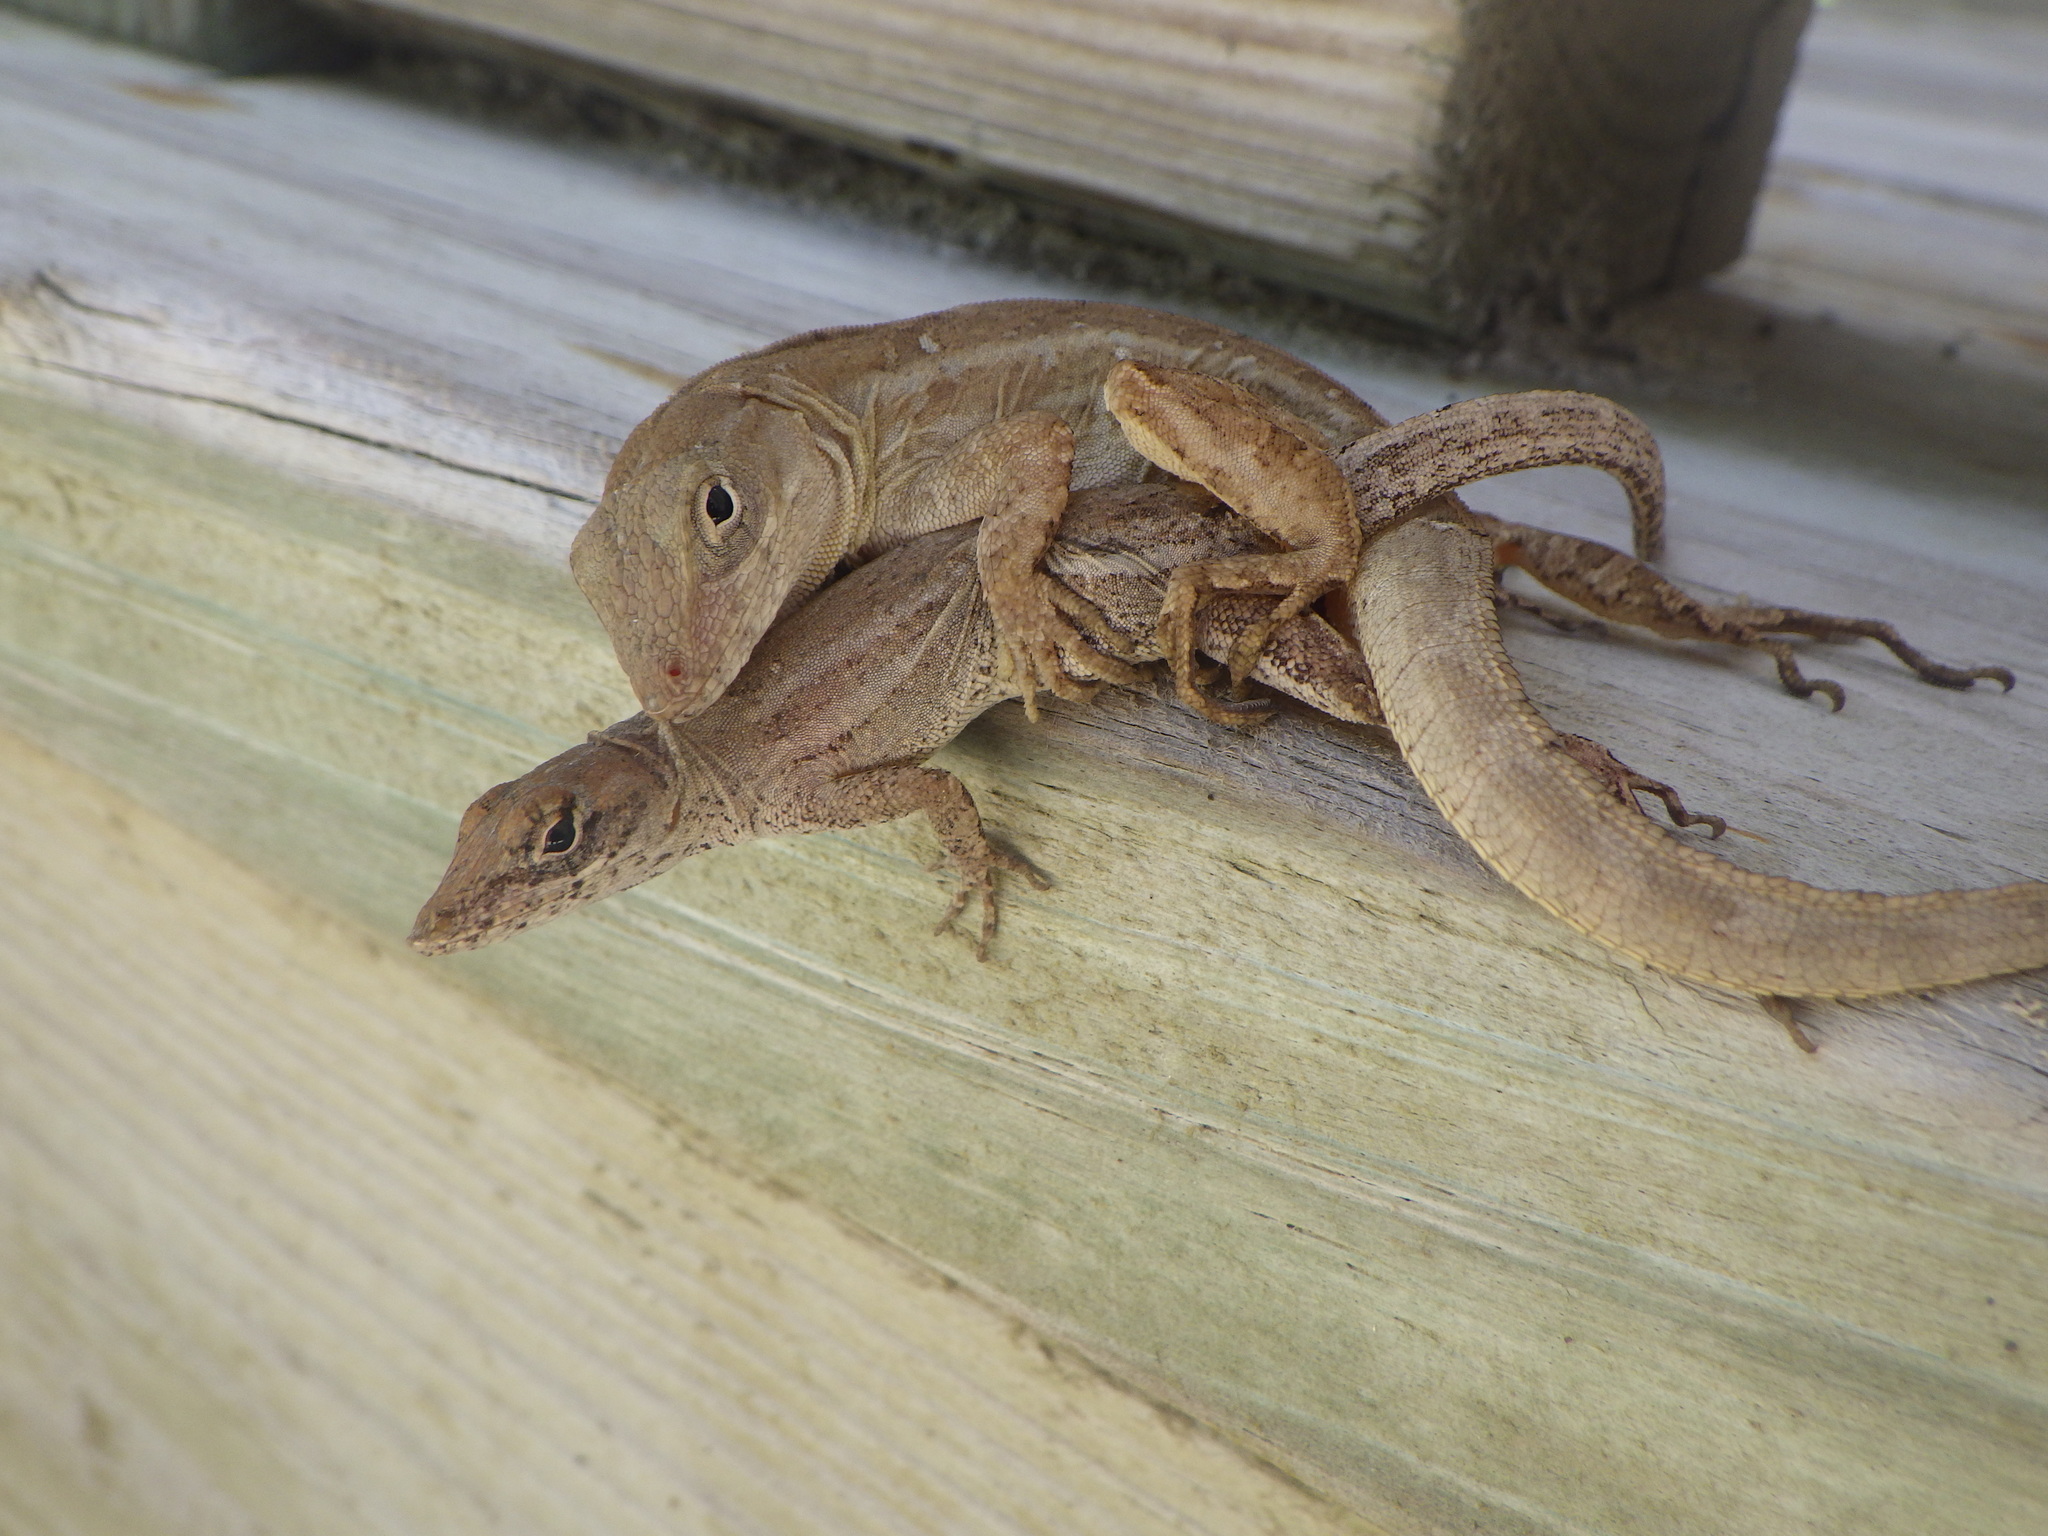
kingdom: Animalia
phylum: Chordata
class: Squamata
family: Dactyloidae
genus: Anolis
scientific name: Anolis sagrei
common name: Brown anole
